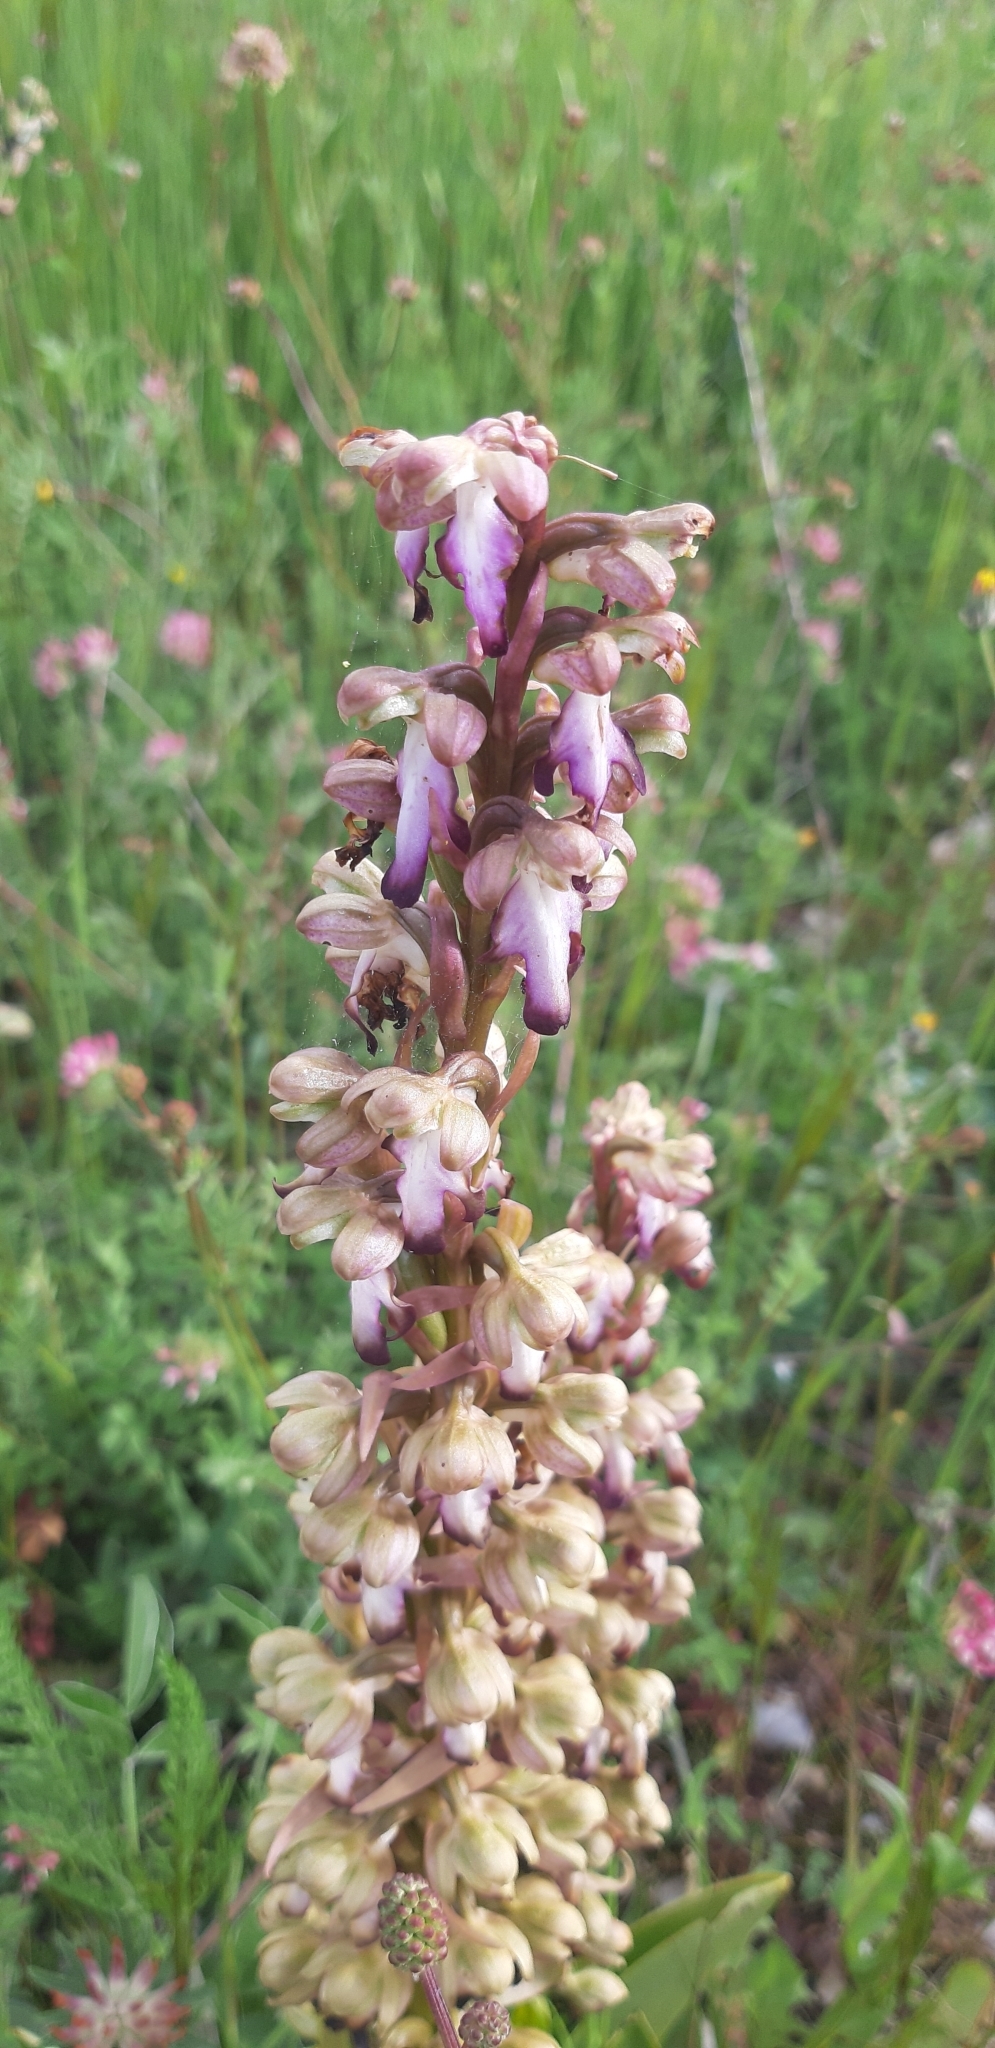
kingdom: Plantae
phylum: Tracheophyta
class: Liliopsida
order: Asparagales
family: Orchidaceae
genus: Himantoglossum
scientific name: Himantoglossum robertianum
